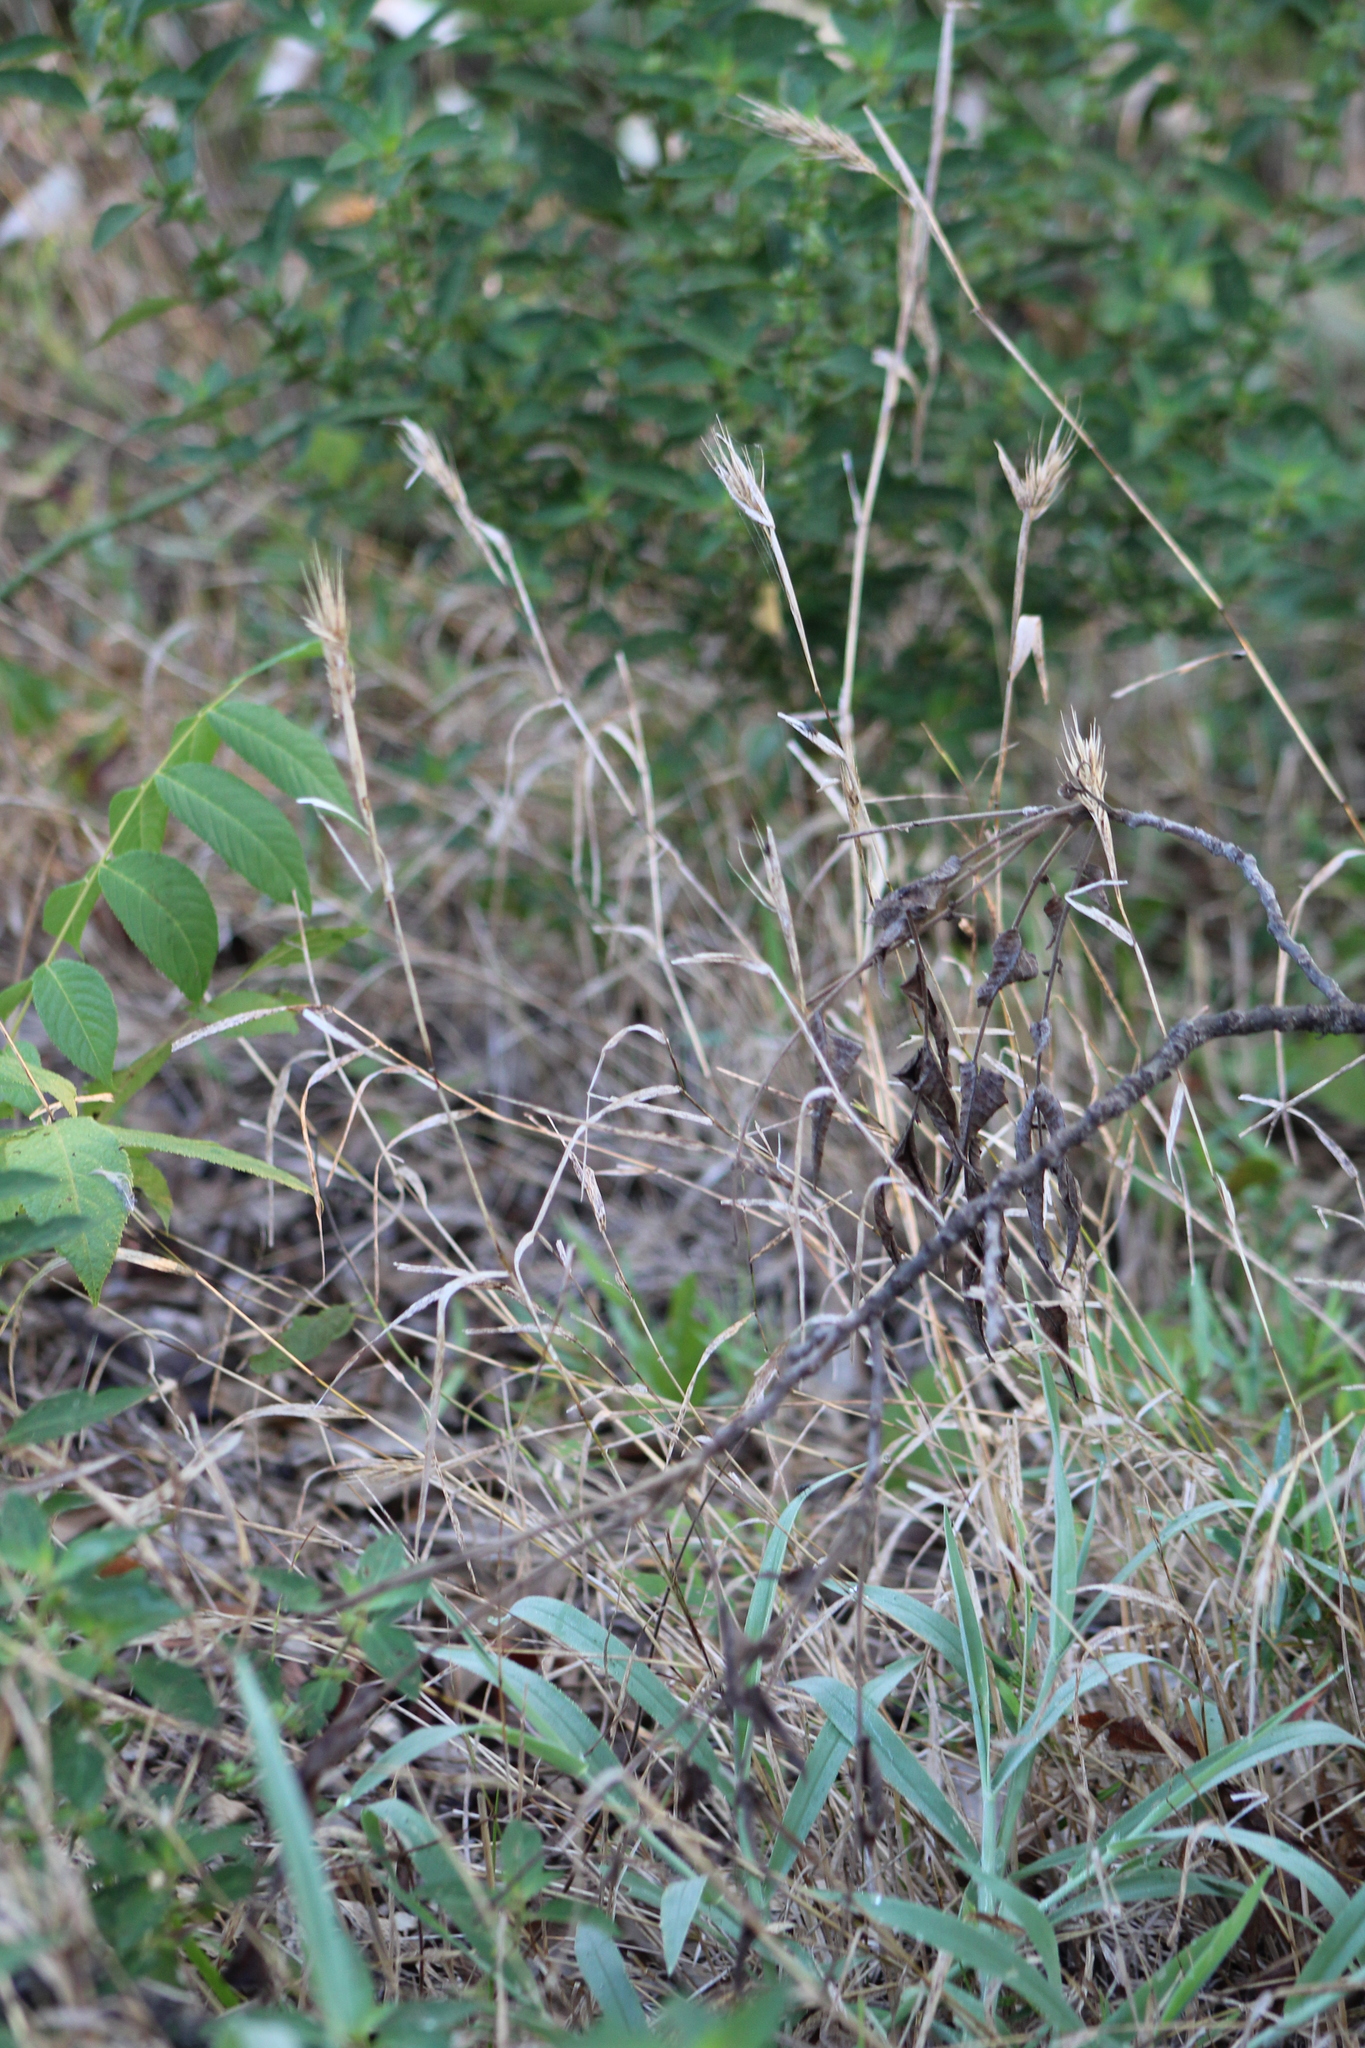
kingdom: Plantae
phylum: Tracheophyta
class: Liliopsida
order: Poales
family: Poaceae
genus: Elymus
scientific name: Elymus virginicus
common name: Common eastern wildrye
